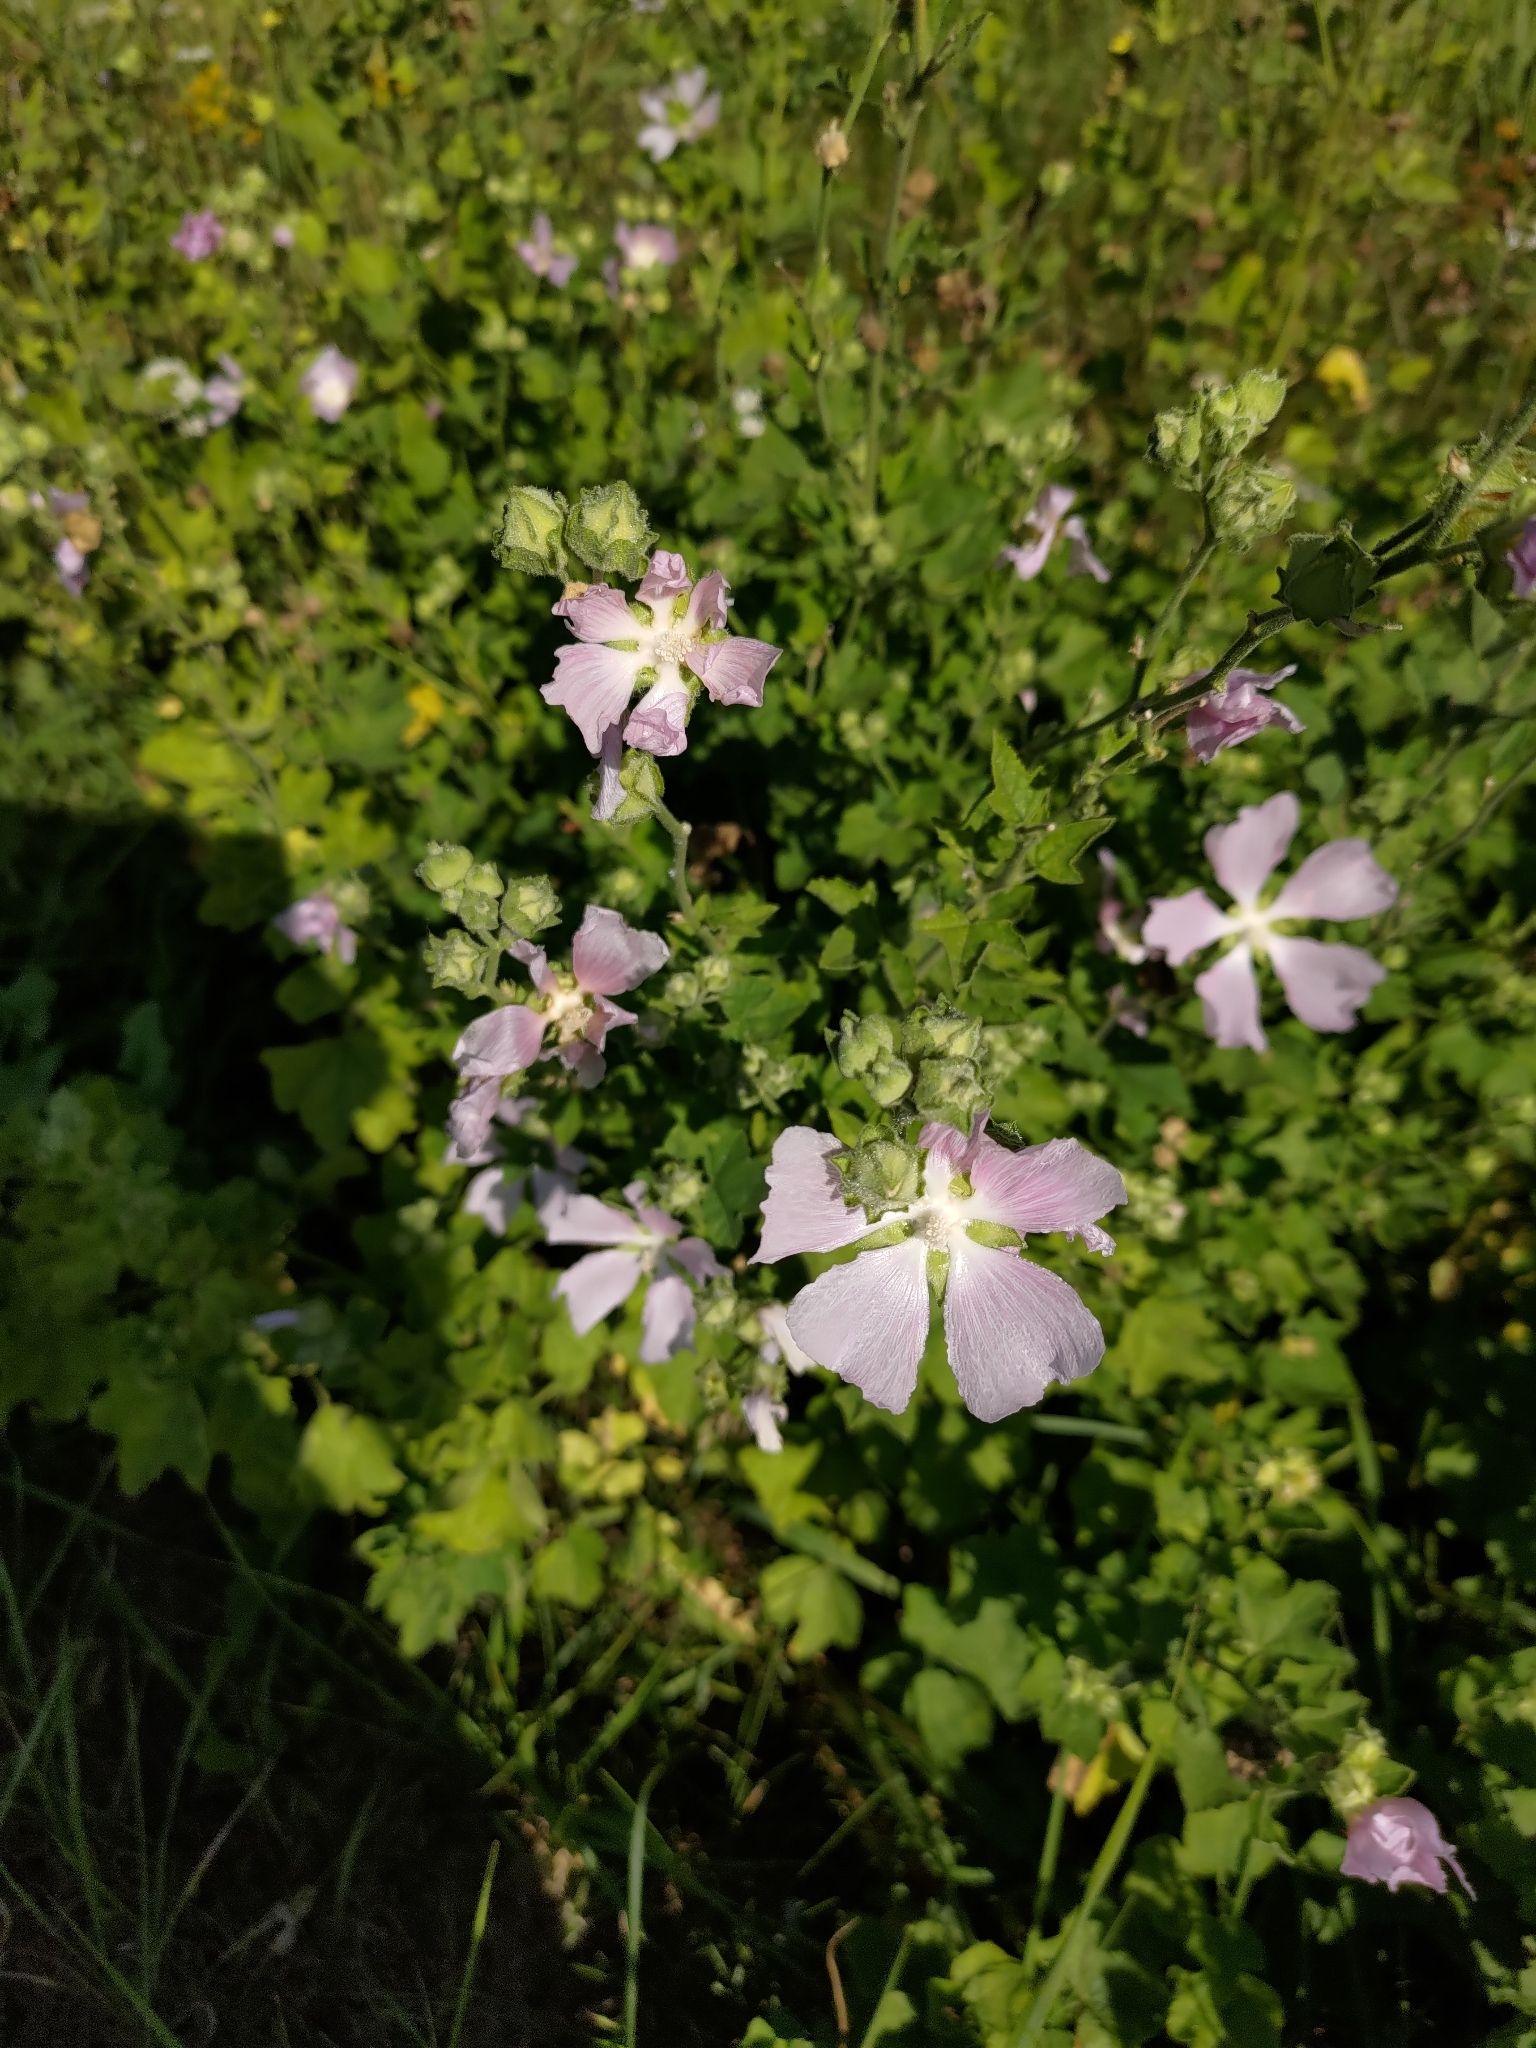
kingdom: Plantae
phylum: Tracheophyta
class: Magnoliopsida
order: Malvales
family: Malvaceae
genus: Malva
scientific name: Malva thuringiaca
